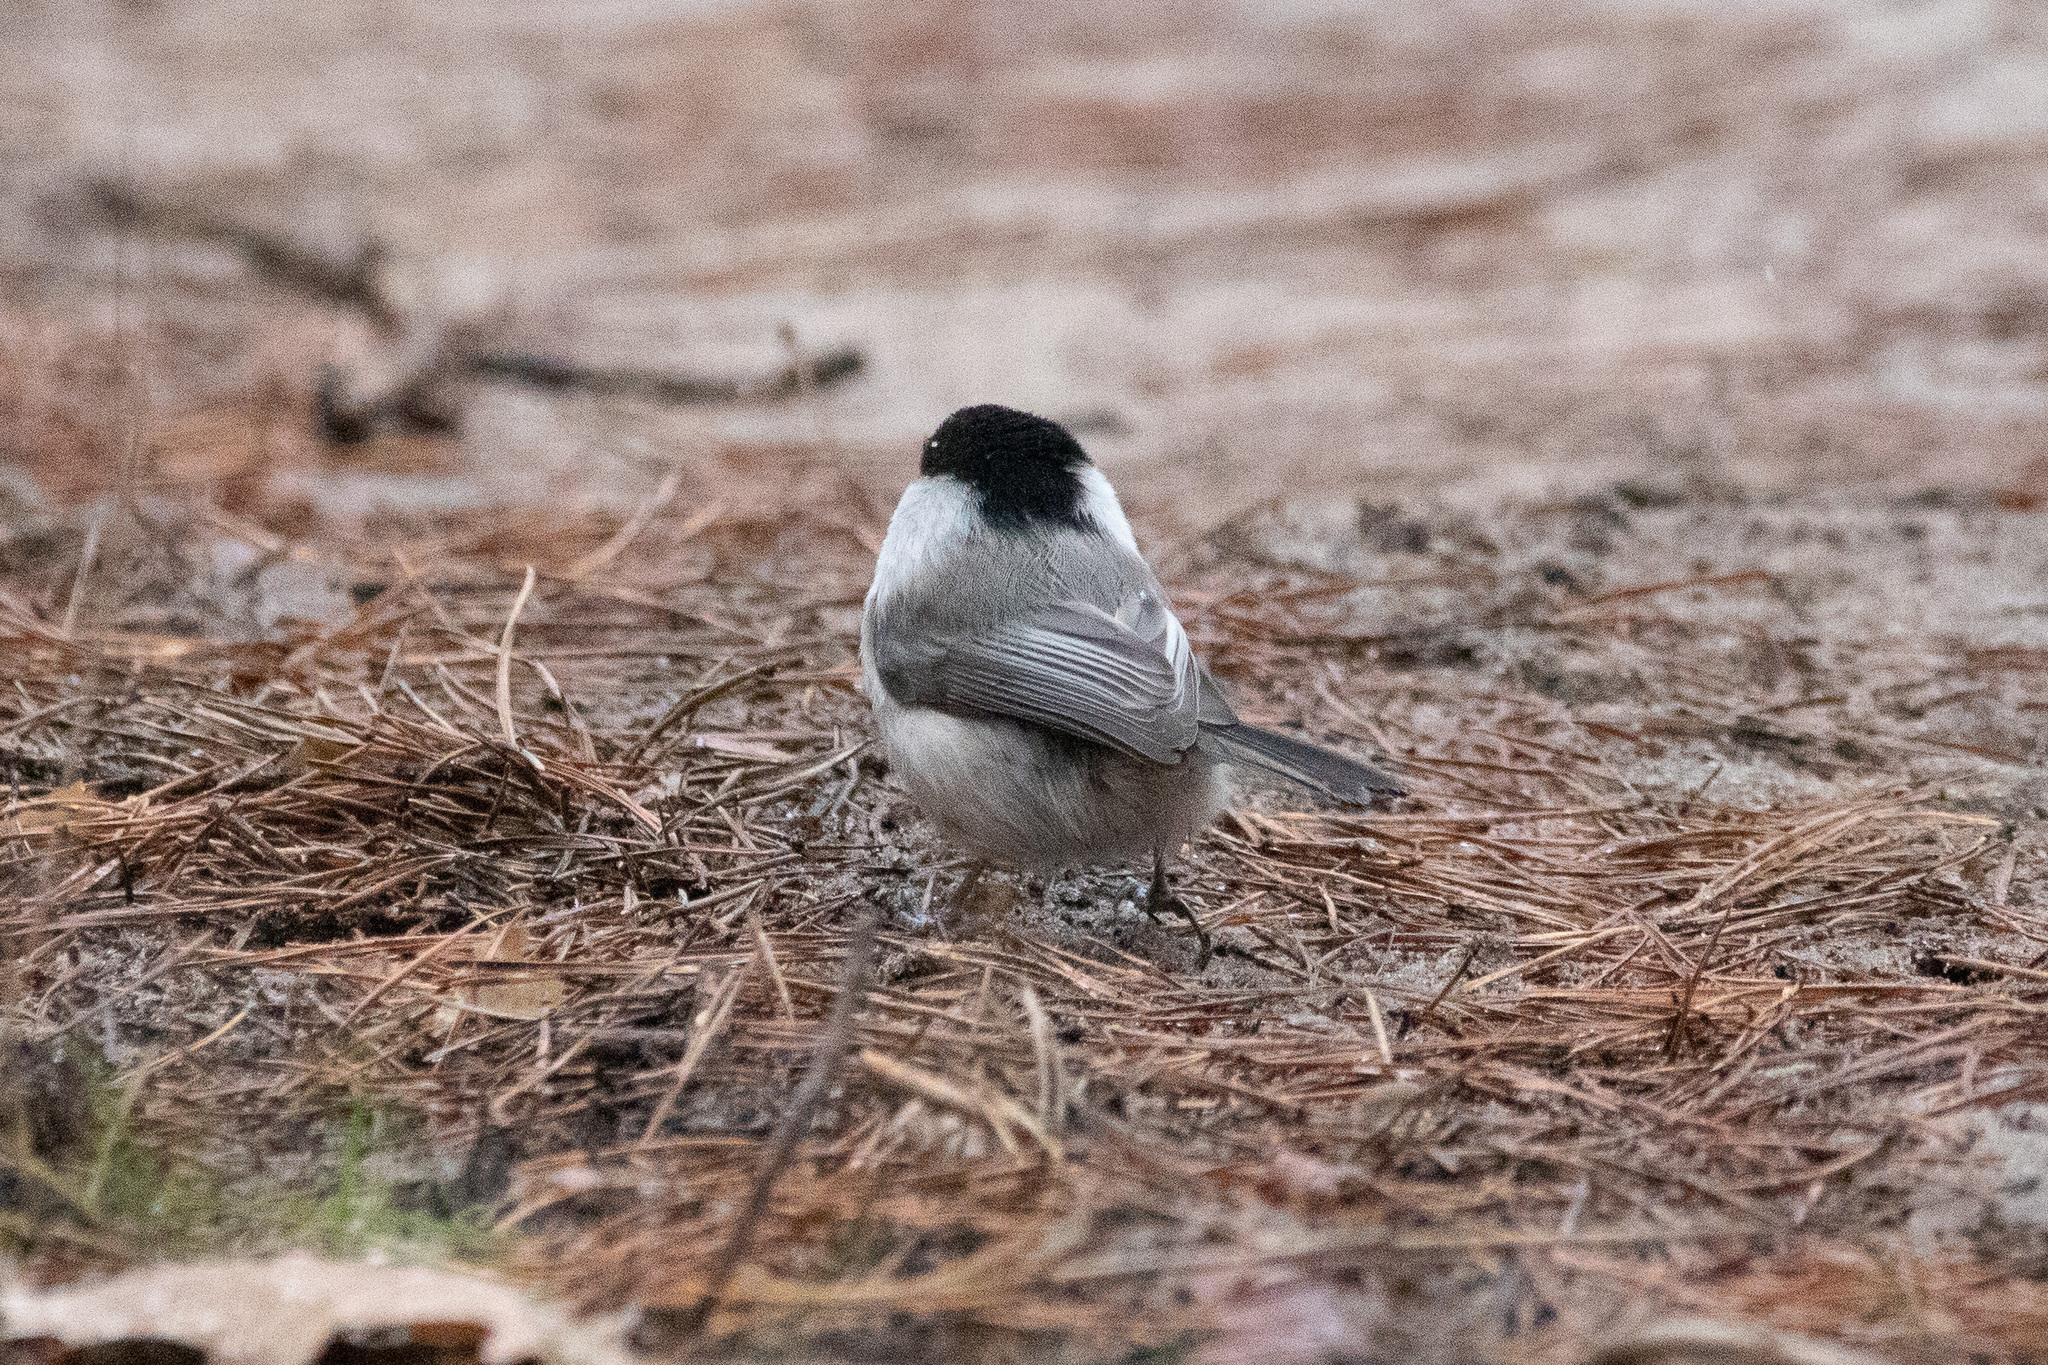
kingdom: Animalia
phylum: Chordata
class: Aves
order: Passeriformes
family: Paridae
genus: Poecile
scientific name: Poecile montanus
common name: Willow tit
